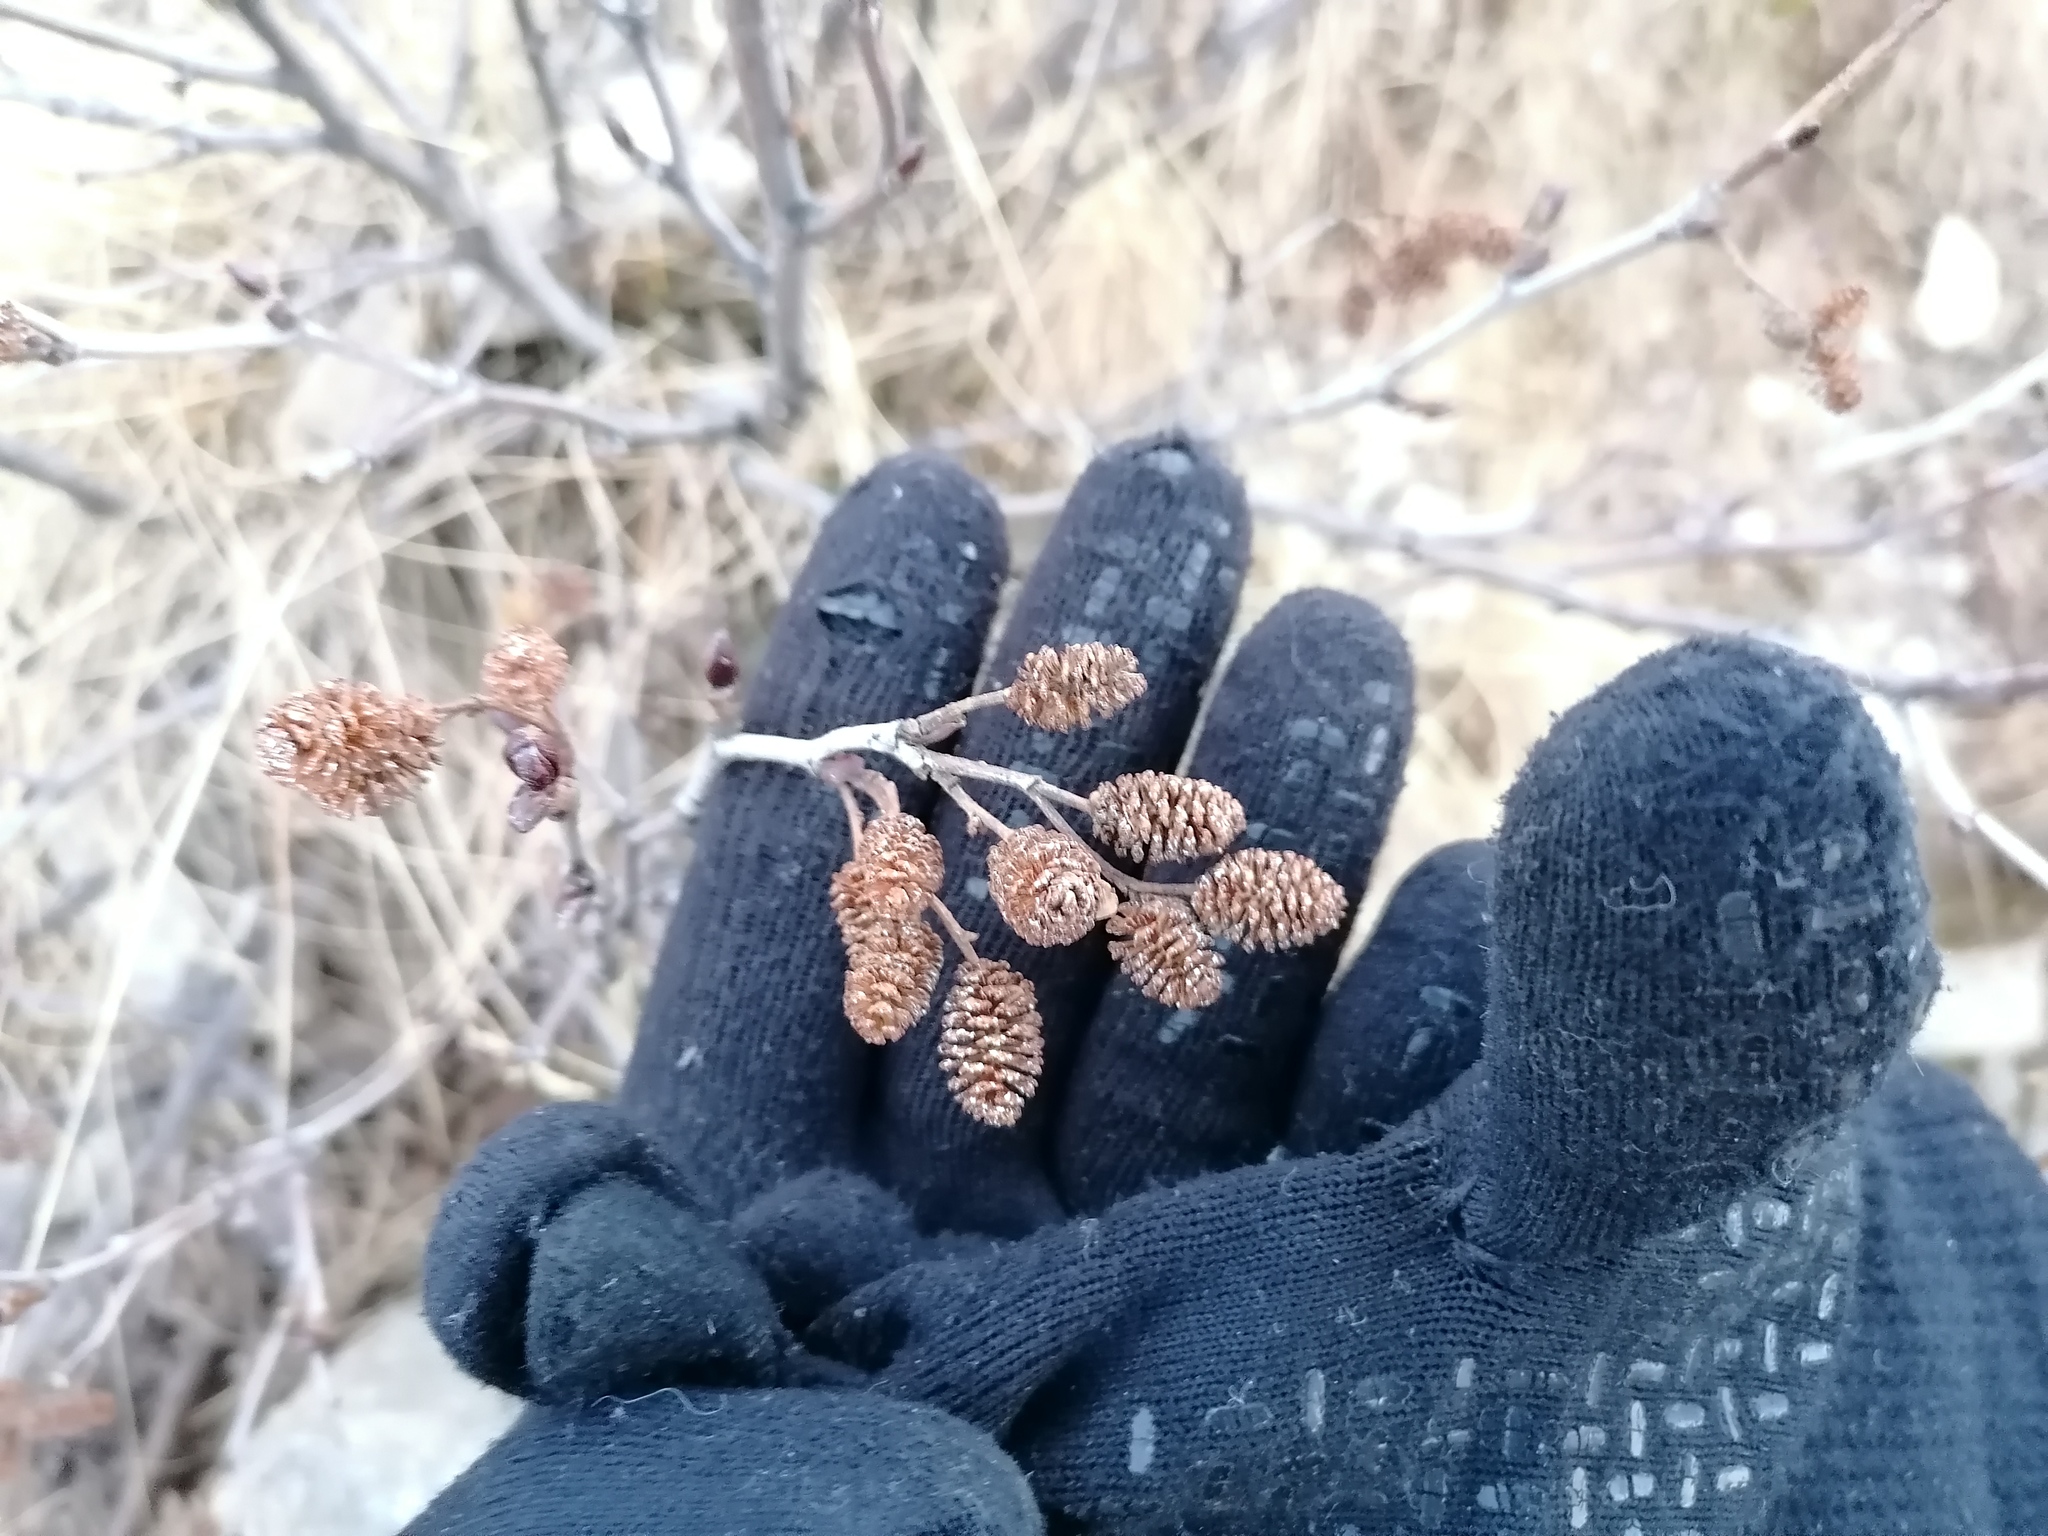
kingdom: Plantae
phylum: Tracheophyta
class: Magnoliopsida
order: Fagales
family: Betulaceae
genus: Alnus
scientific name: Alnus alnobetula
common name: Green alder
